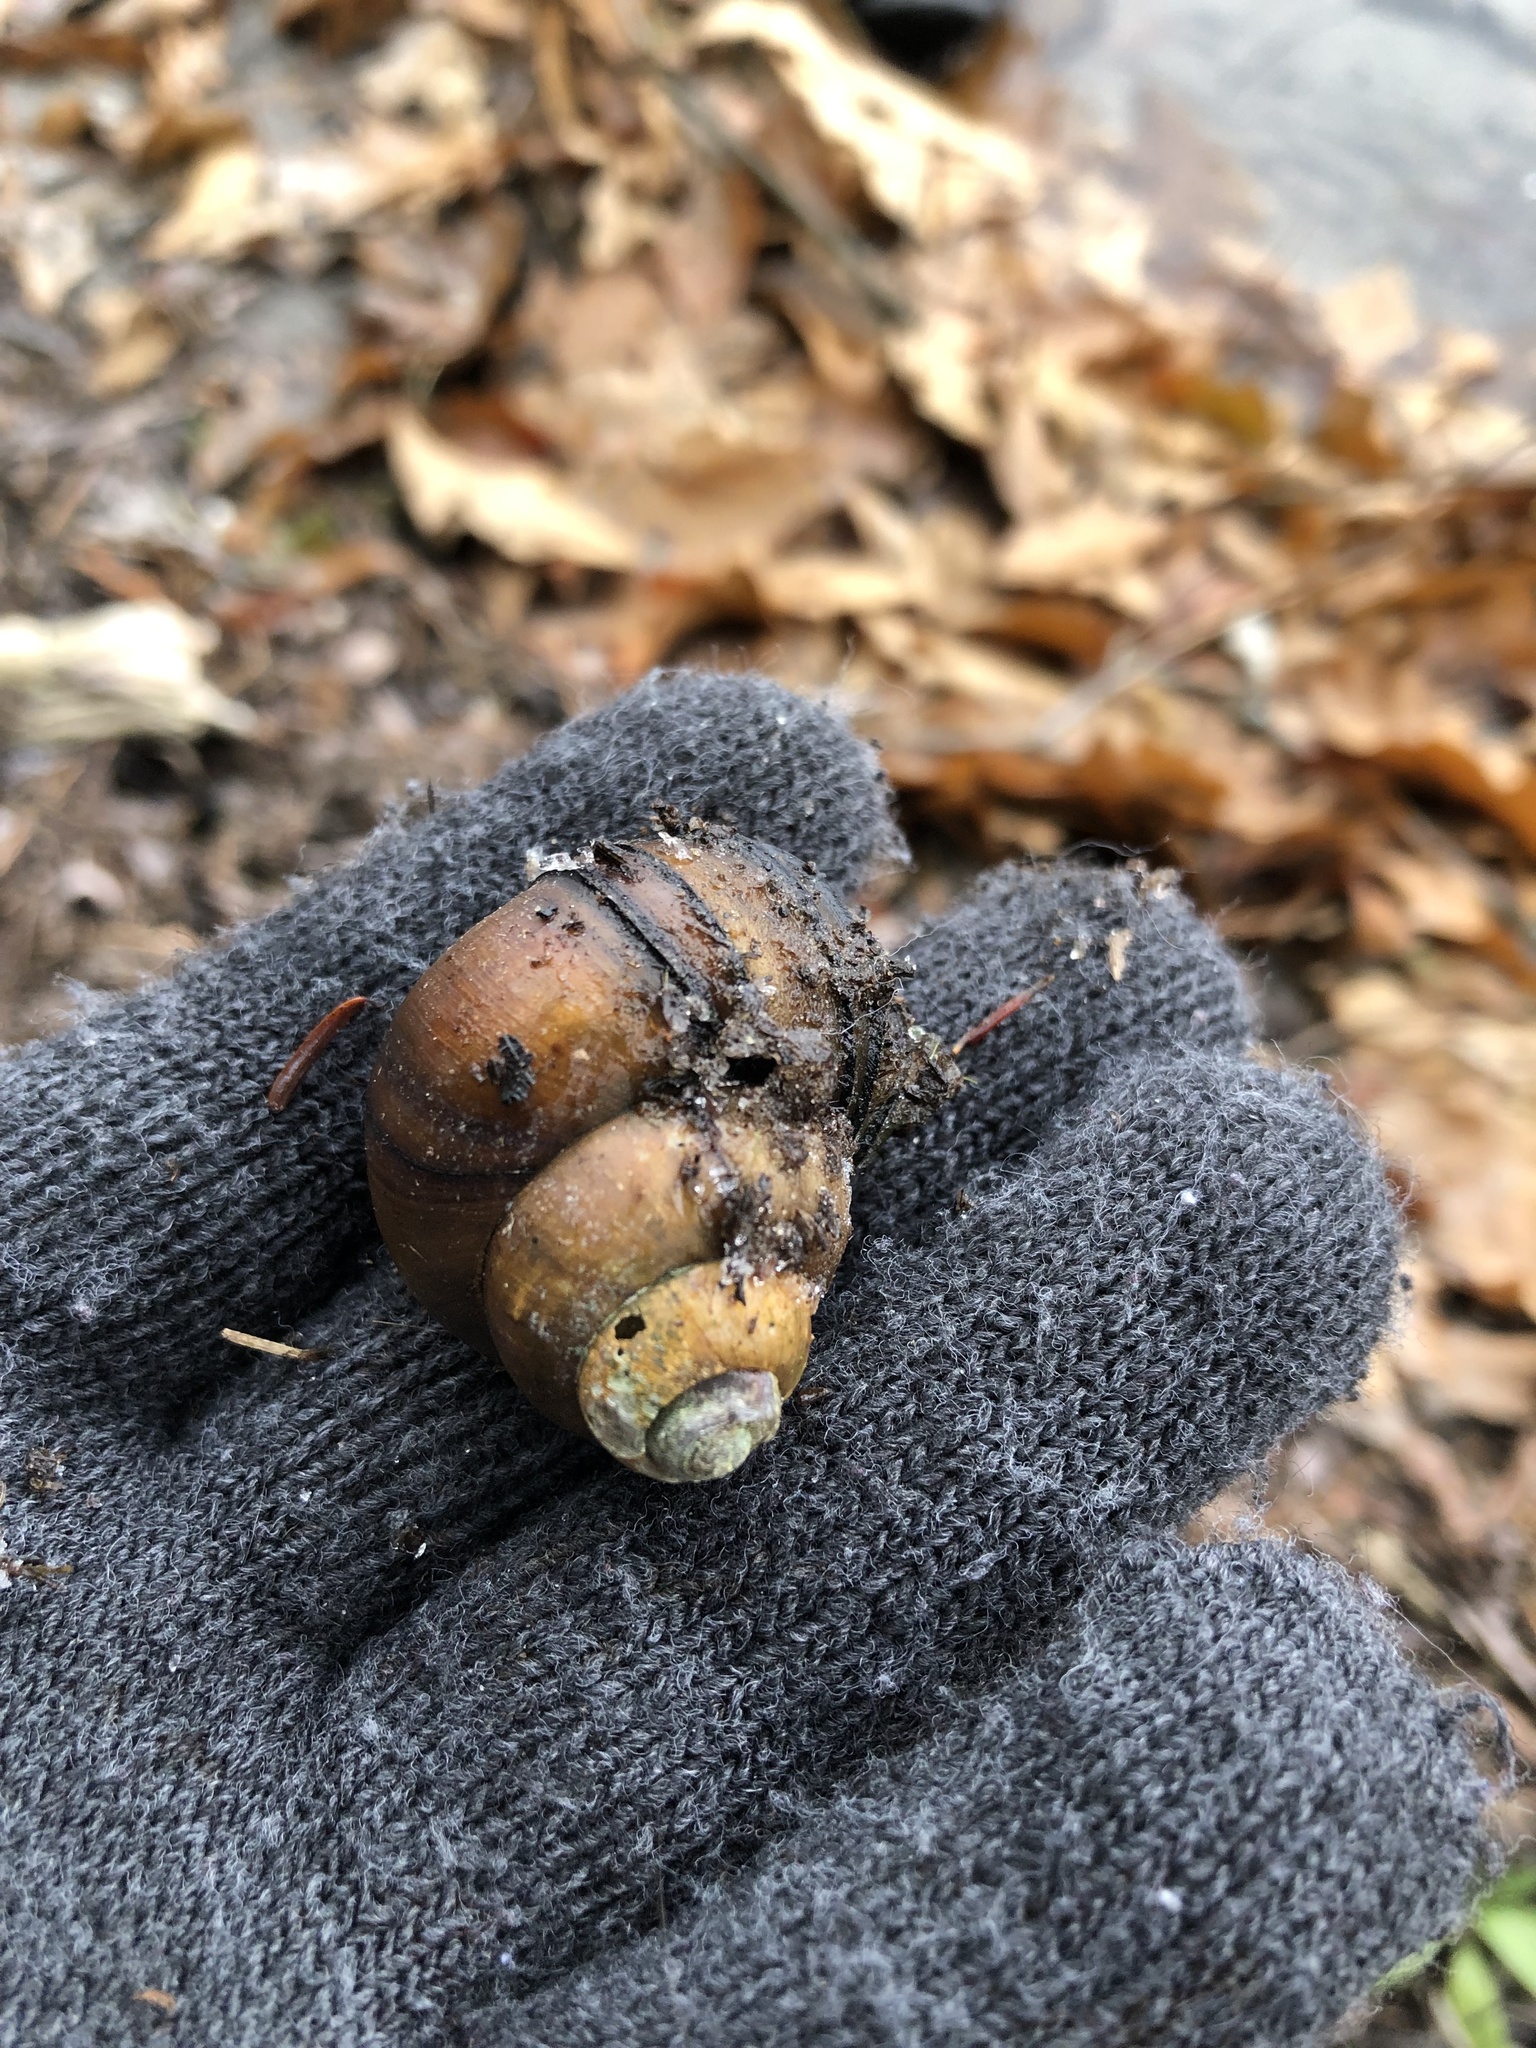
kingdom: Animalia
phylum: Mollusca
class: Gastropoda
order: Architaenioglossa
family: Viviparidae
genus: Cipangopaludina
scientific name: Cipangopaludina chinensis
